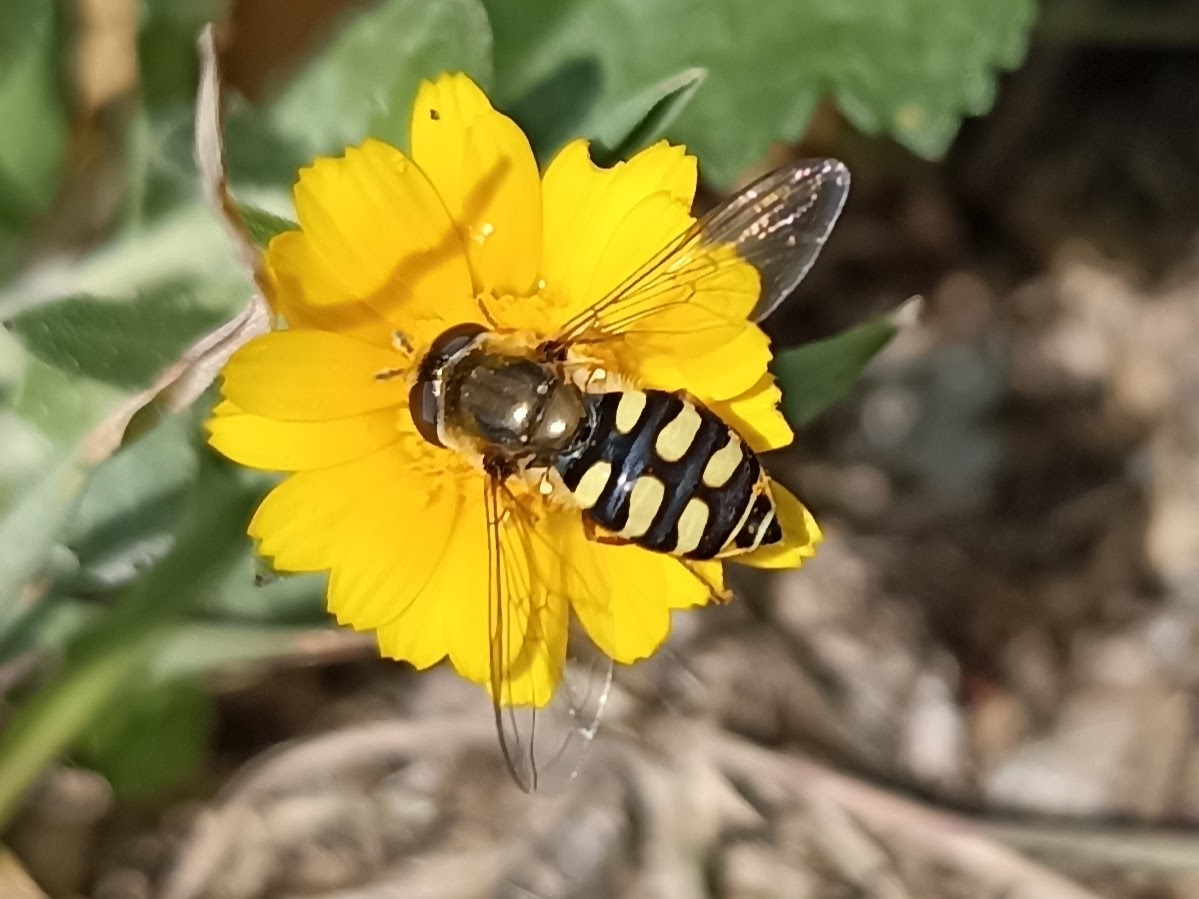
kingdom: Animalia
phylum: Arthropoda
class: Insecta
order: Diptera
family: Syrphidae
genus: Eupeodes
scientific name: Eupeodes corollae
